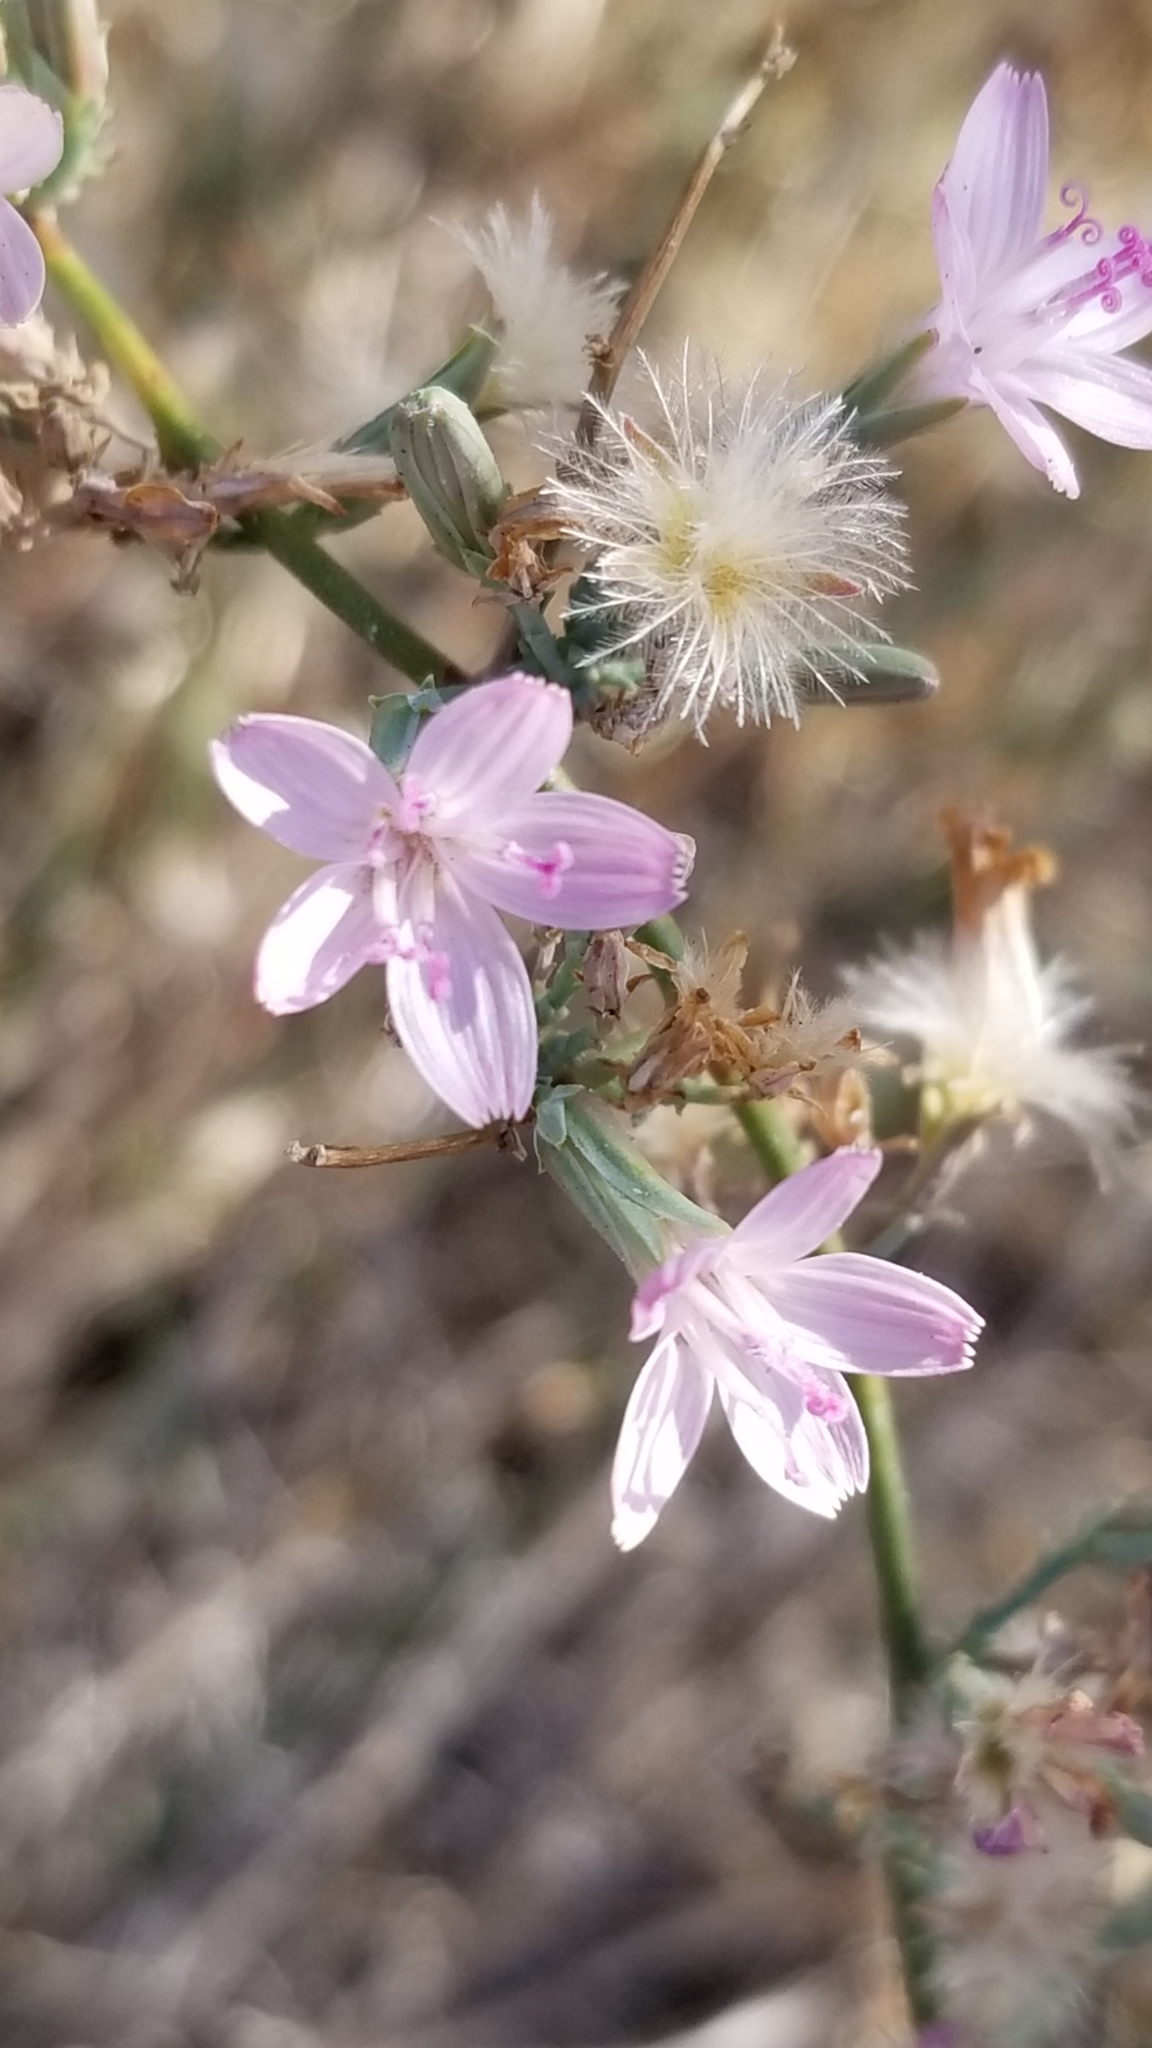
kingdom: Plantae
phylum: Tracheophyta
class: Magnoliopsida
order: Asterales
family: Asteraceae
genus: Stephanomeria
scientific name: Stephanomeria pauciflora
